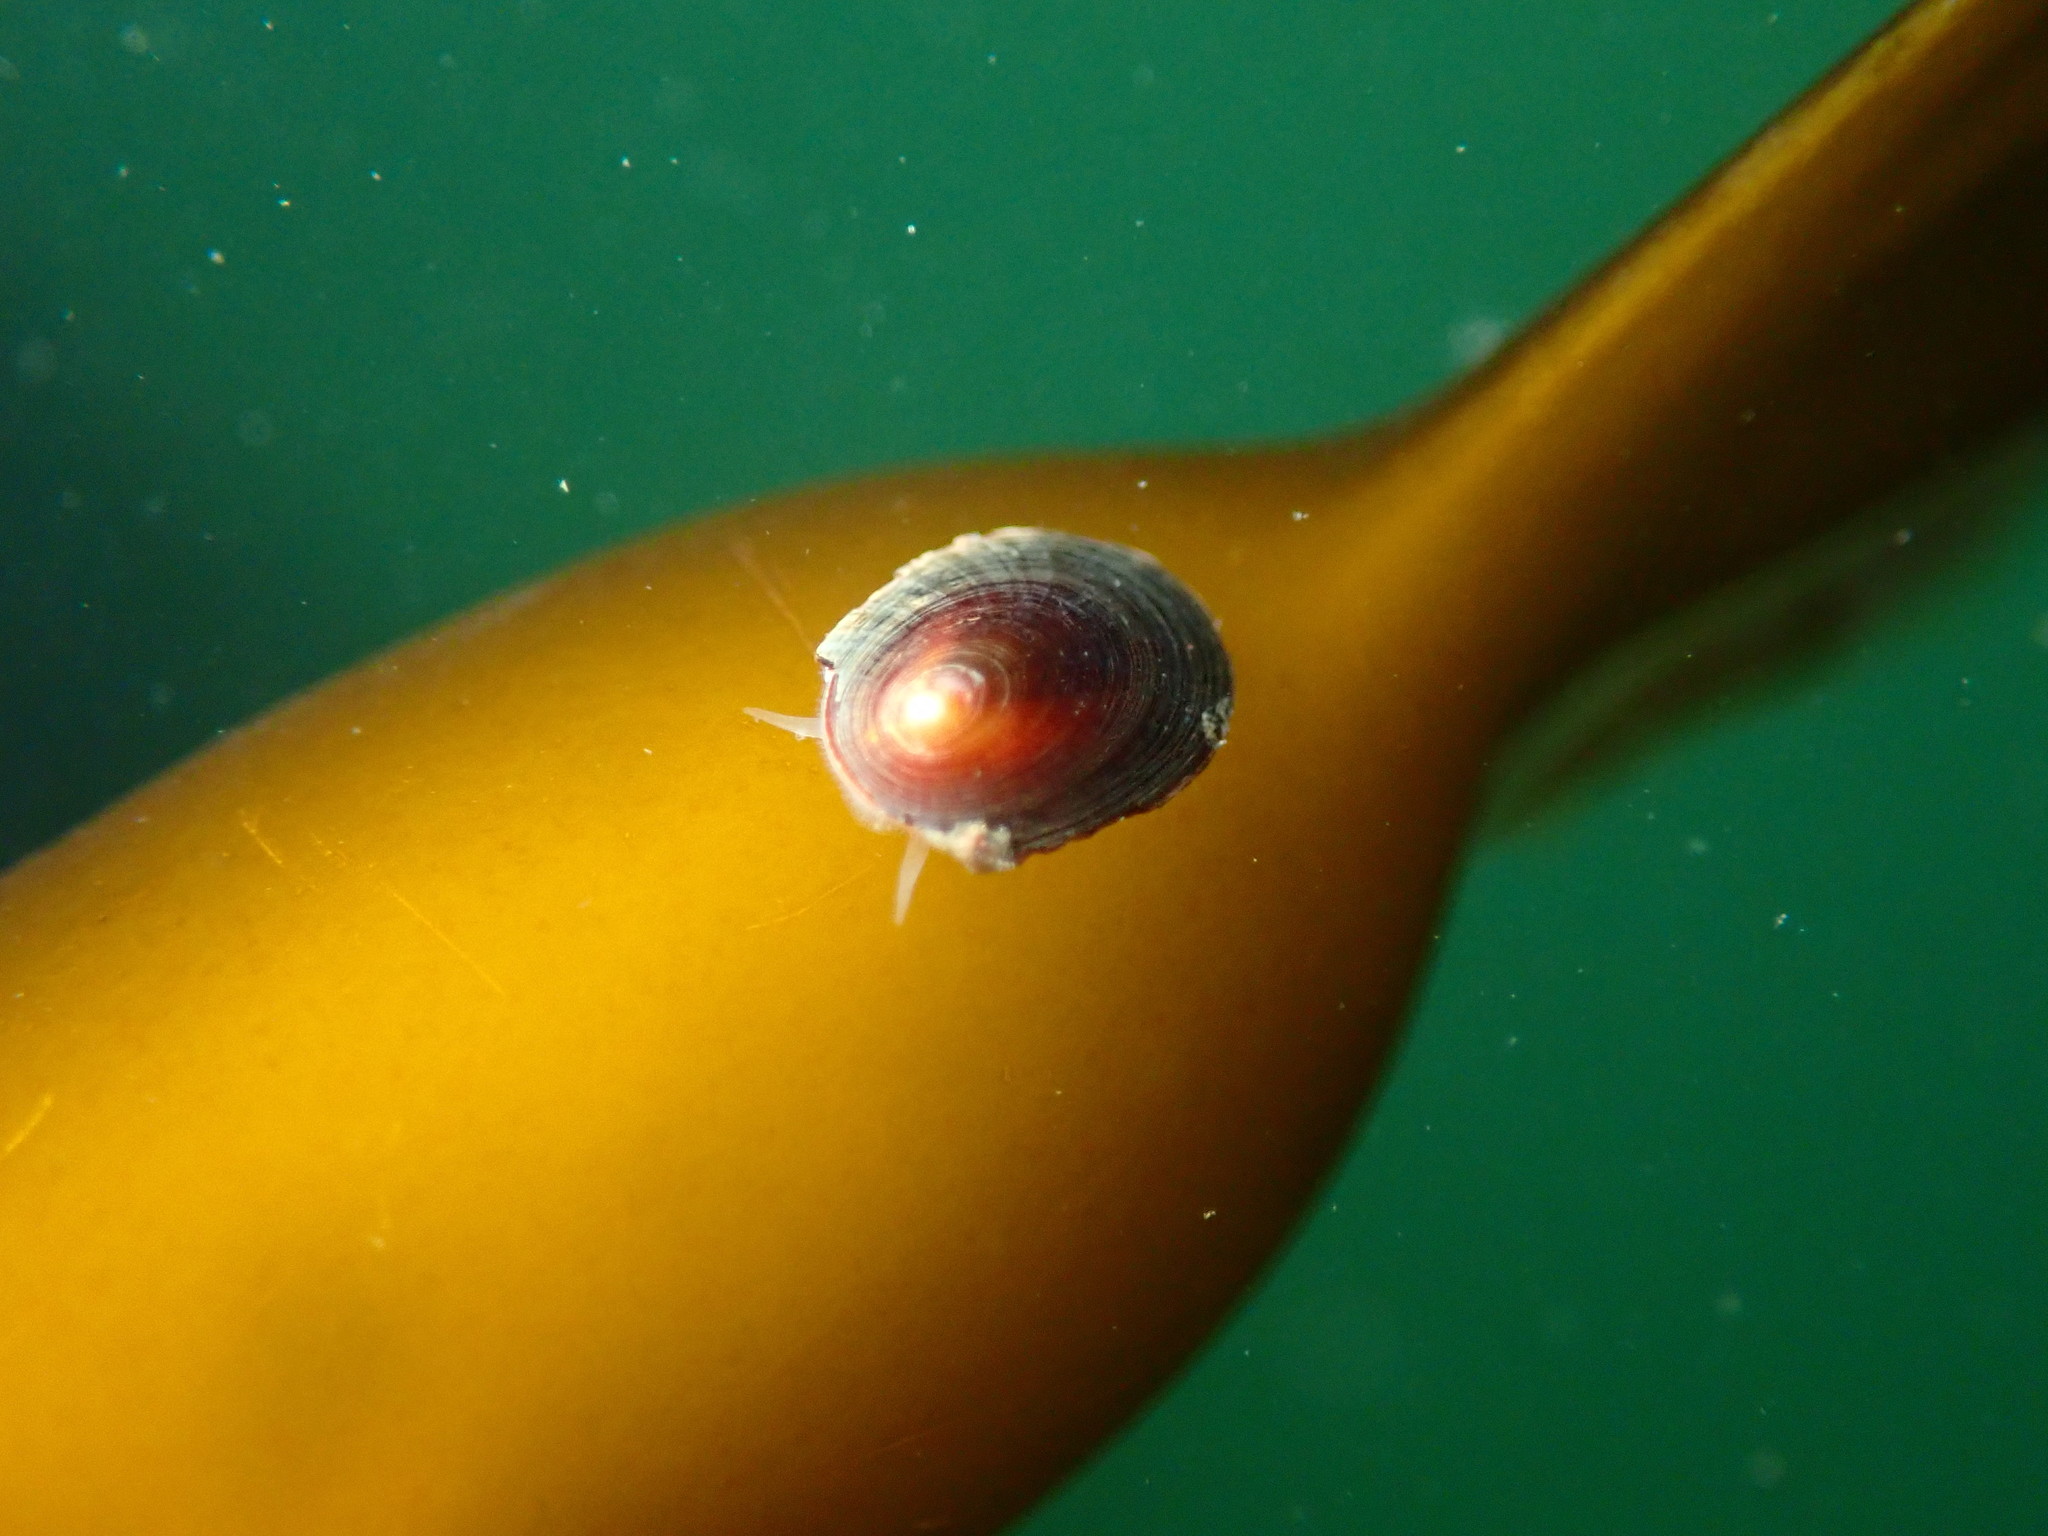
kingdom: Animalia
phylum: Mollusca
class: Gastropoda
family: Lottiidae
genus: Discurria
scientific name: Discurria insessa
